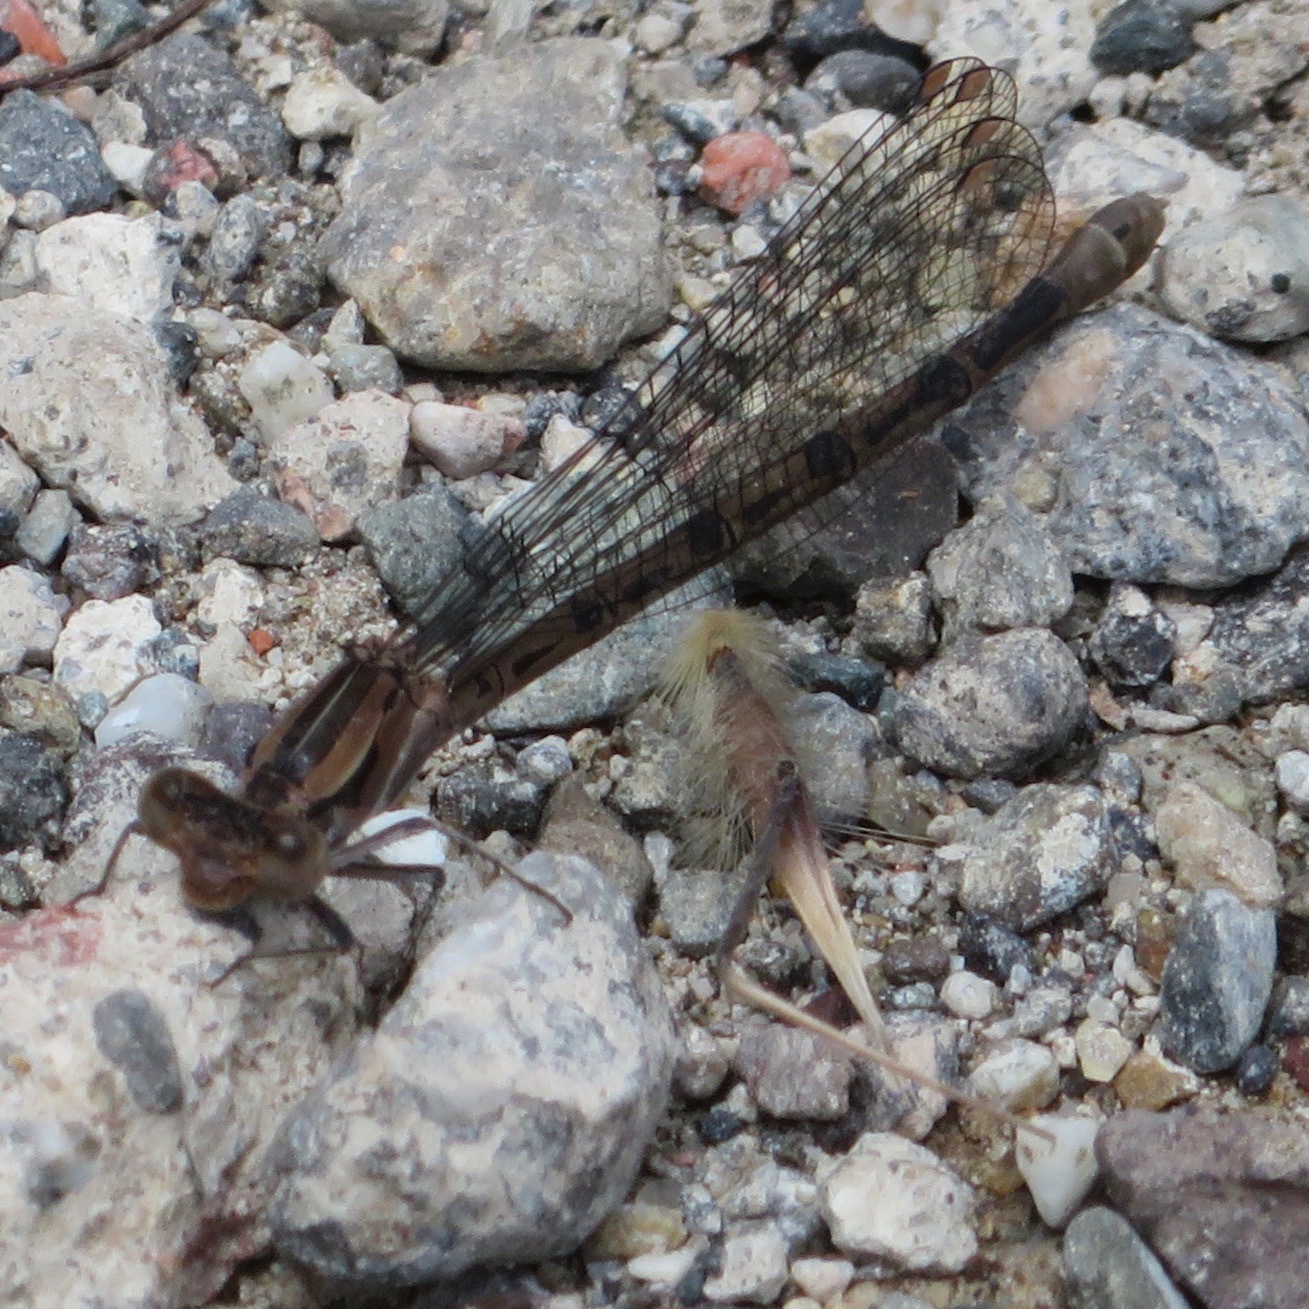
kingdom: Animalia
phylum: Arthropoda
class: Insecta
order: Odonata
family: Coenagrionidae
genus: Argia
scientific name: Argia vivida
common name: Vivid dancer
